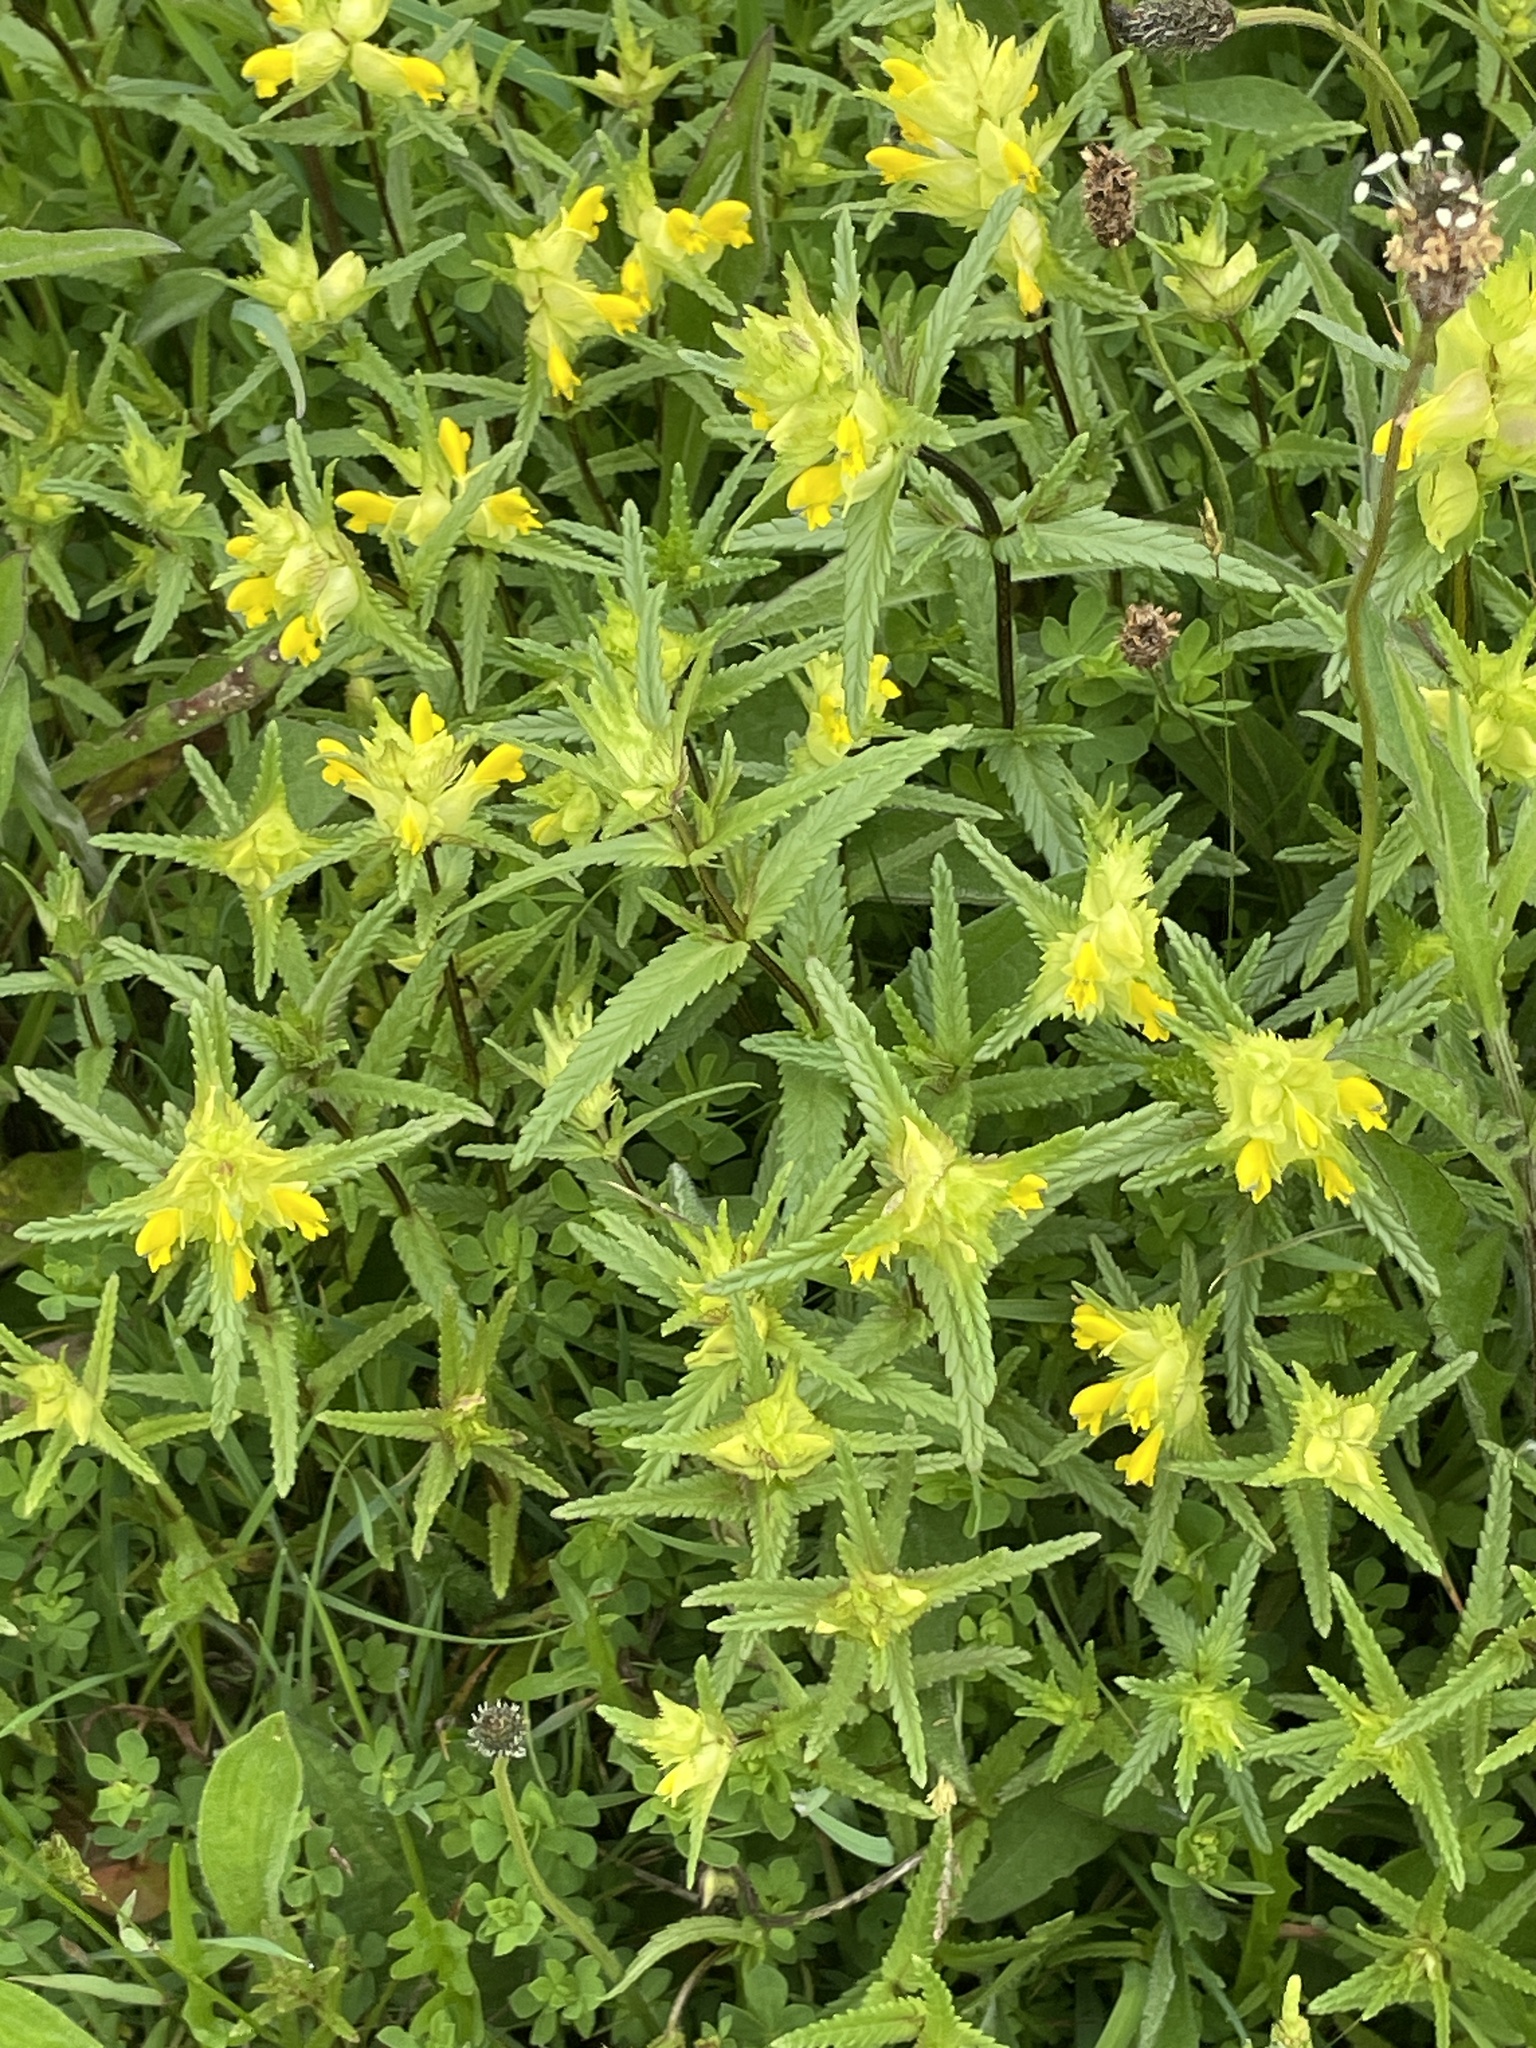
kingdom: Plantae
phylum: Tracheophyta
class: Magnoliopsida
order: Lamiales
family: Orobanchaceae
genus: Rhinanthus
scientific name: Rhinanthus minor
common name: Yellow-rattle
